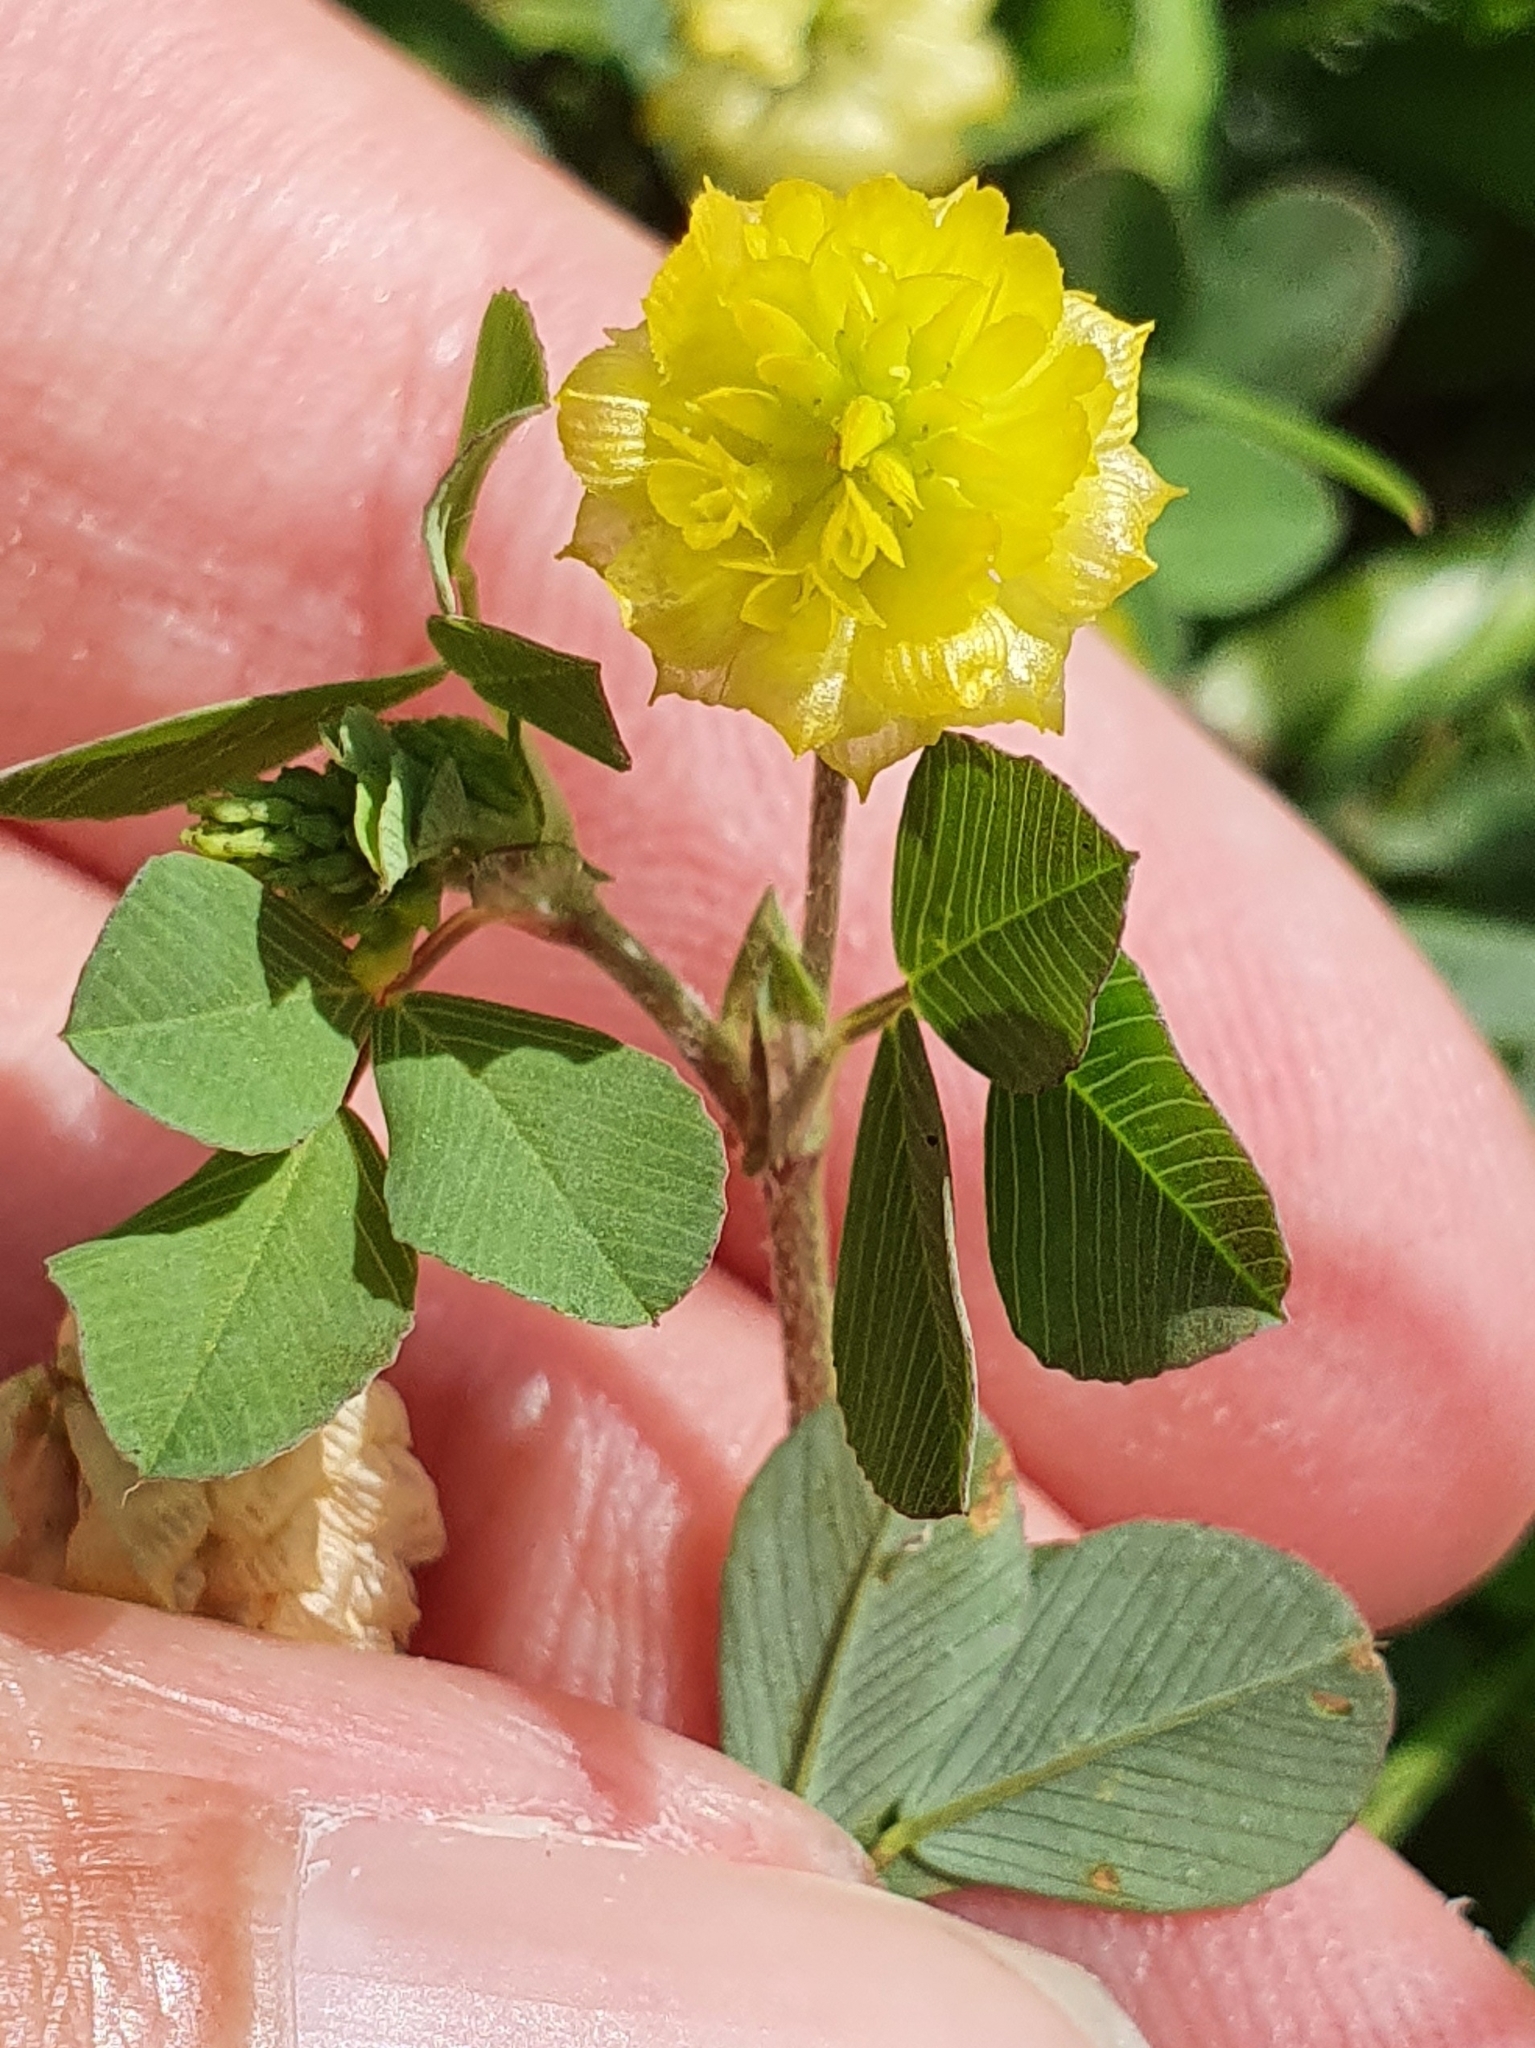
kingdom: Plantae
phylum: Tracheophyta
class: Magnoliopsida
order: Fabales
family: Fabaceae
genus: Trifolium
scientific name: Trifolium campestre
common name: Field clover
